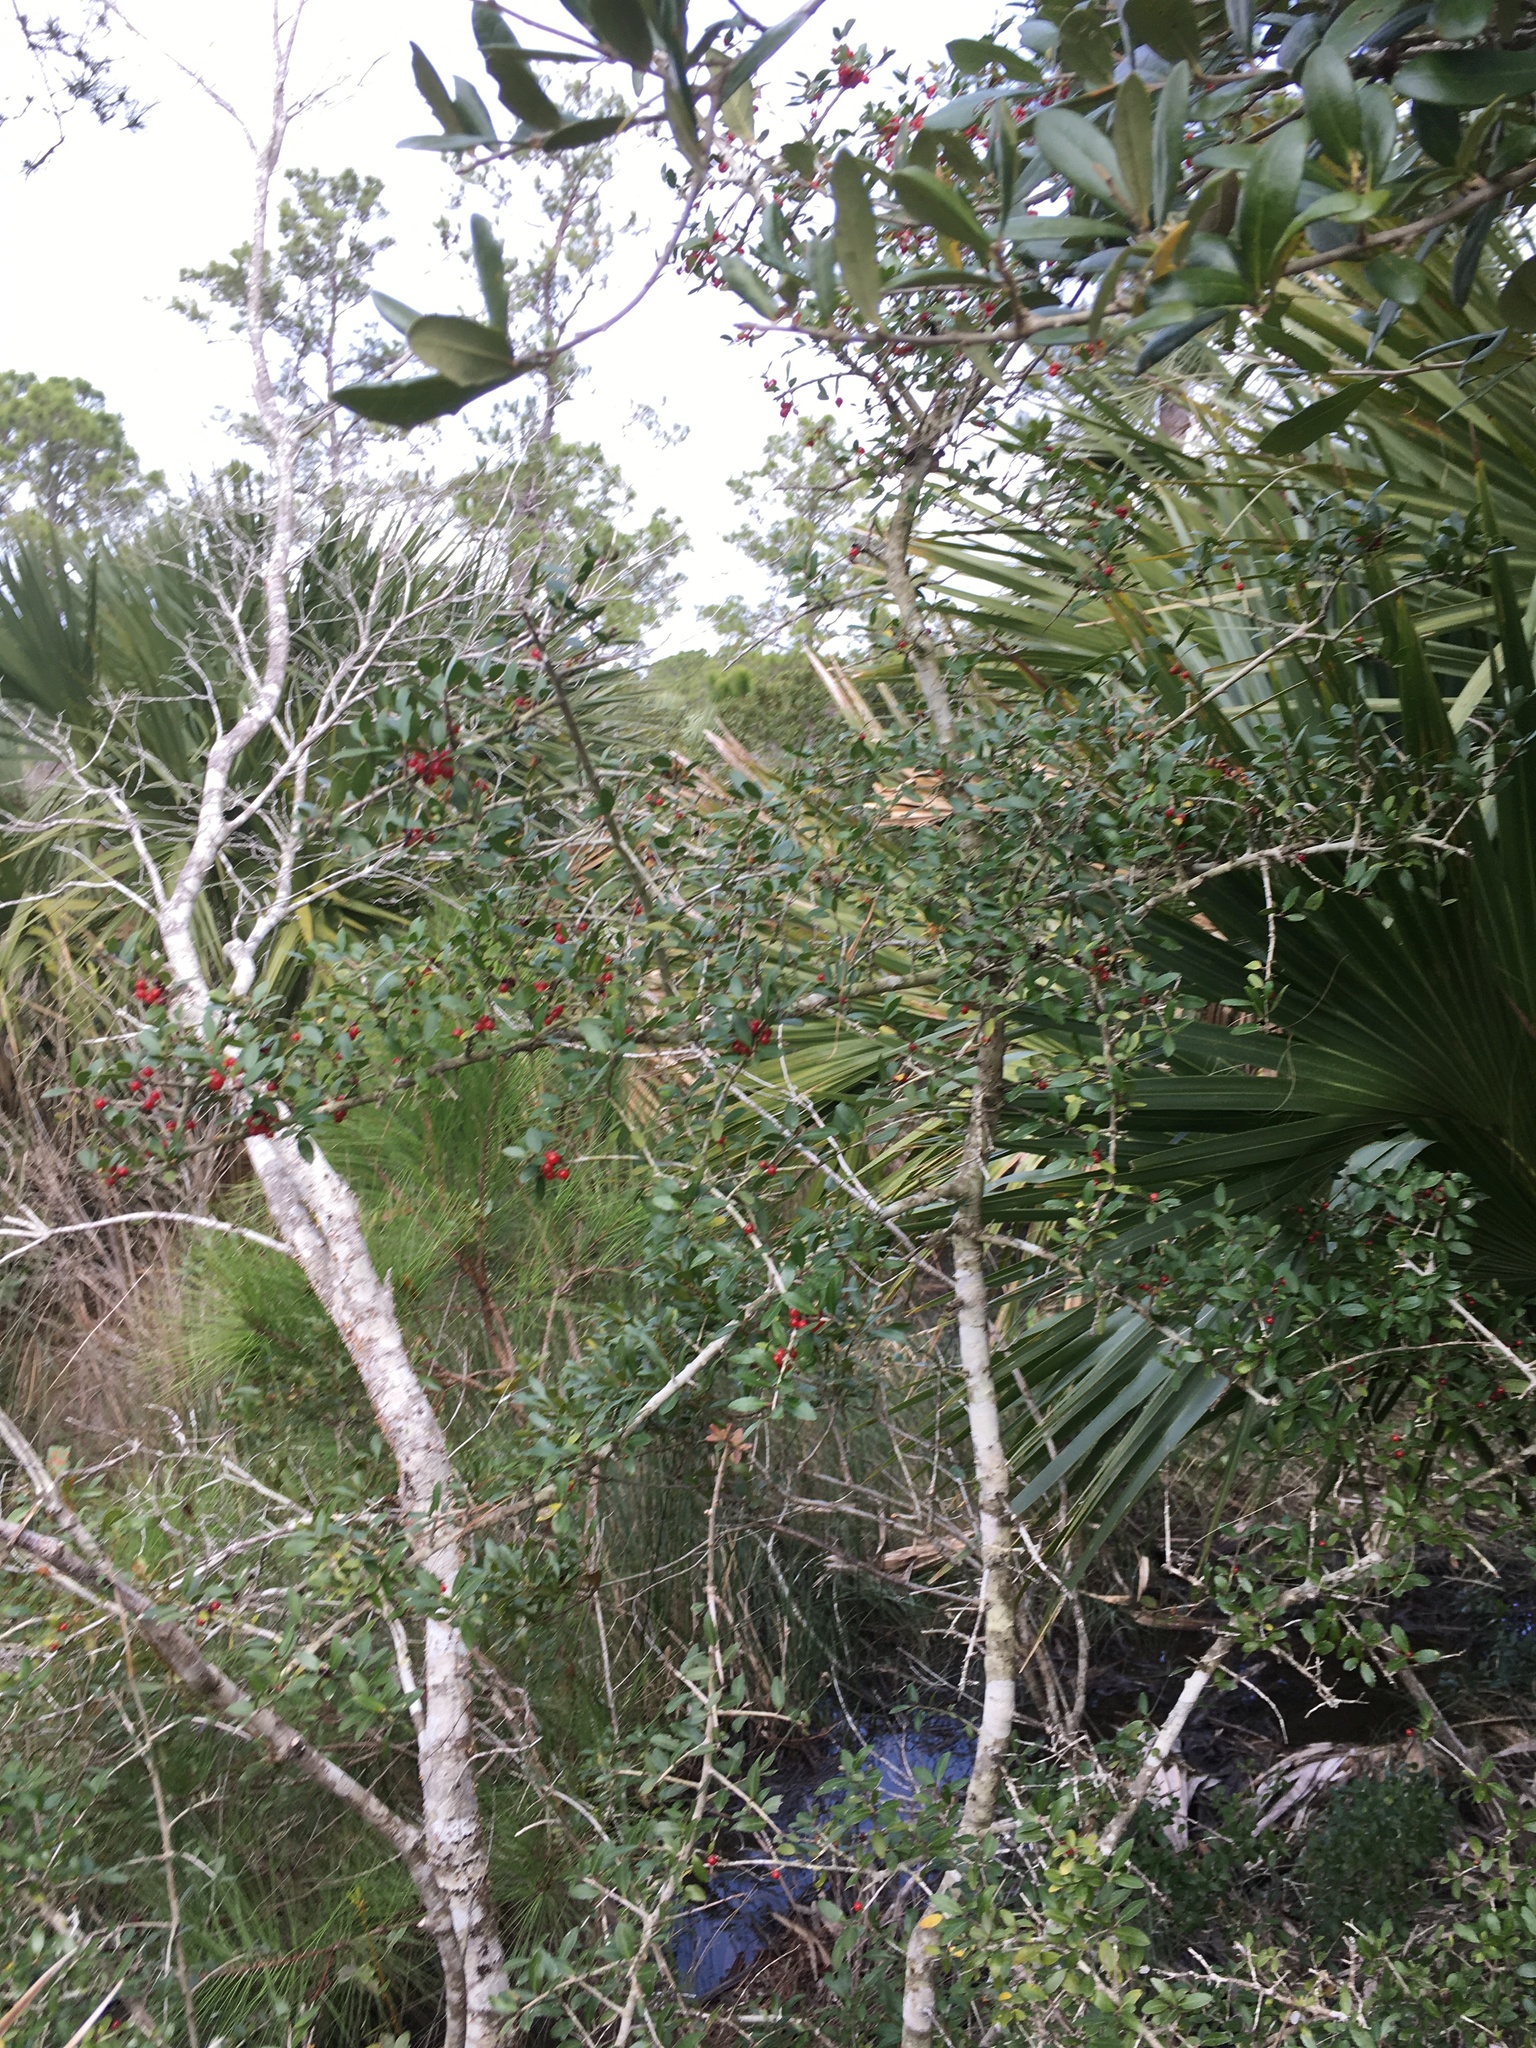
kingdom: Plantae
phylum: Tracheophyta
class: Magnoliopsida
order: Aquifoliales
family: Aquifoliaceae
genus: Ilex
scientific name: Ilex vomitoria
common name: Yaupon holly
